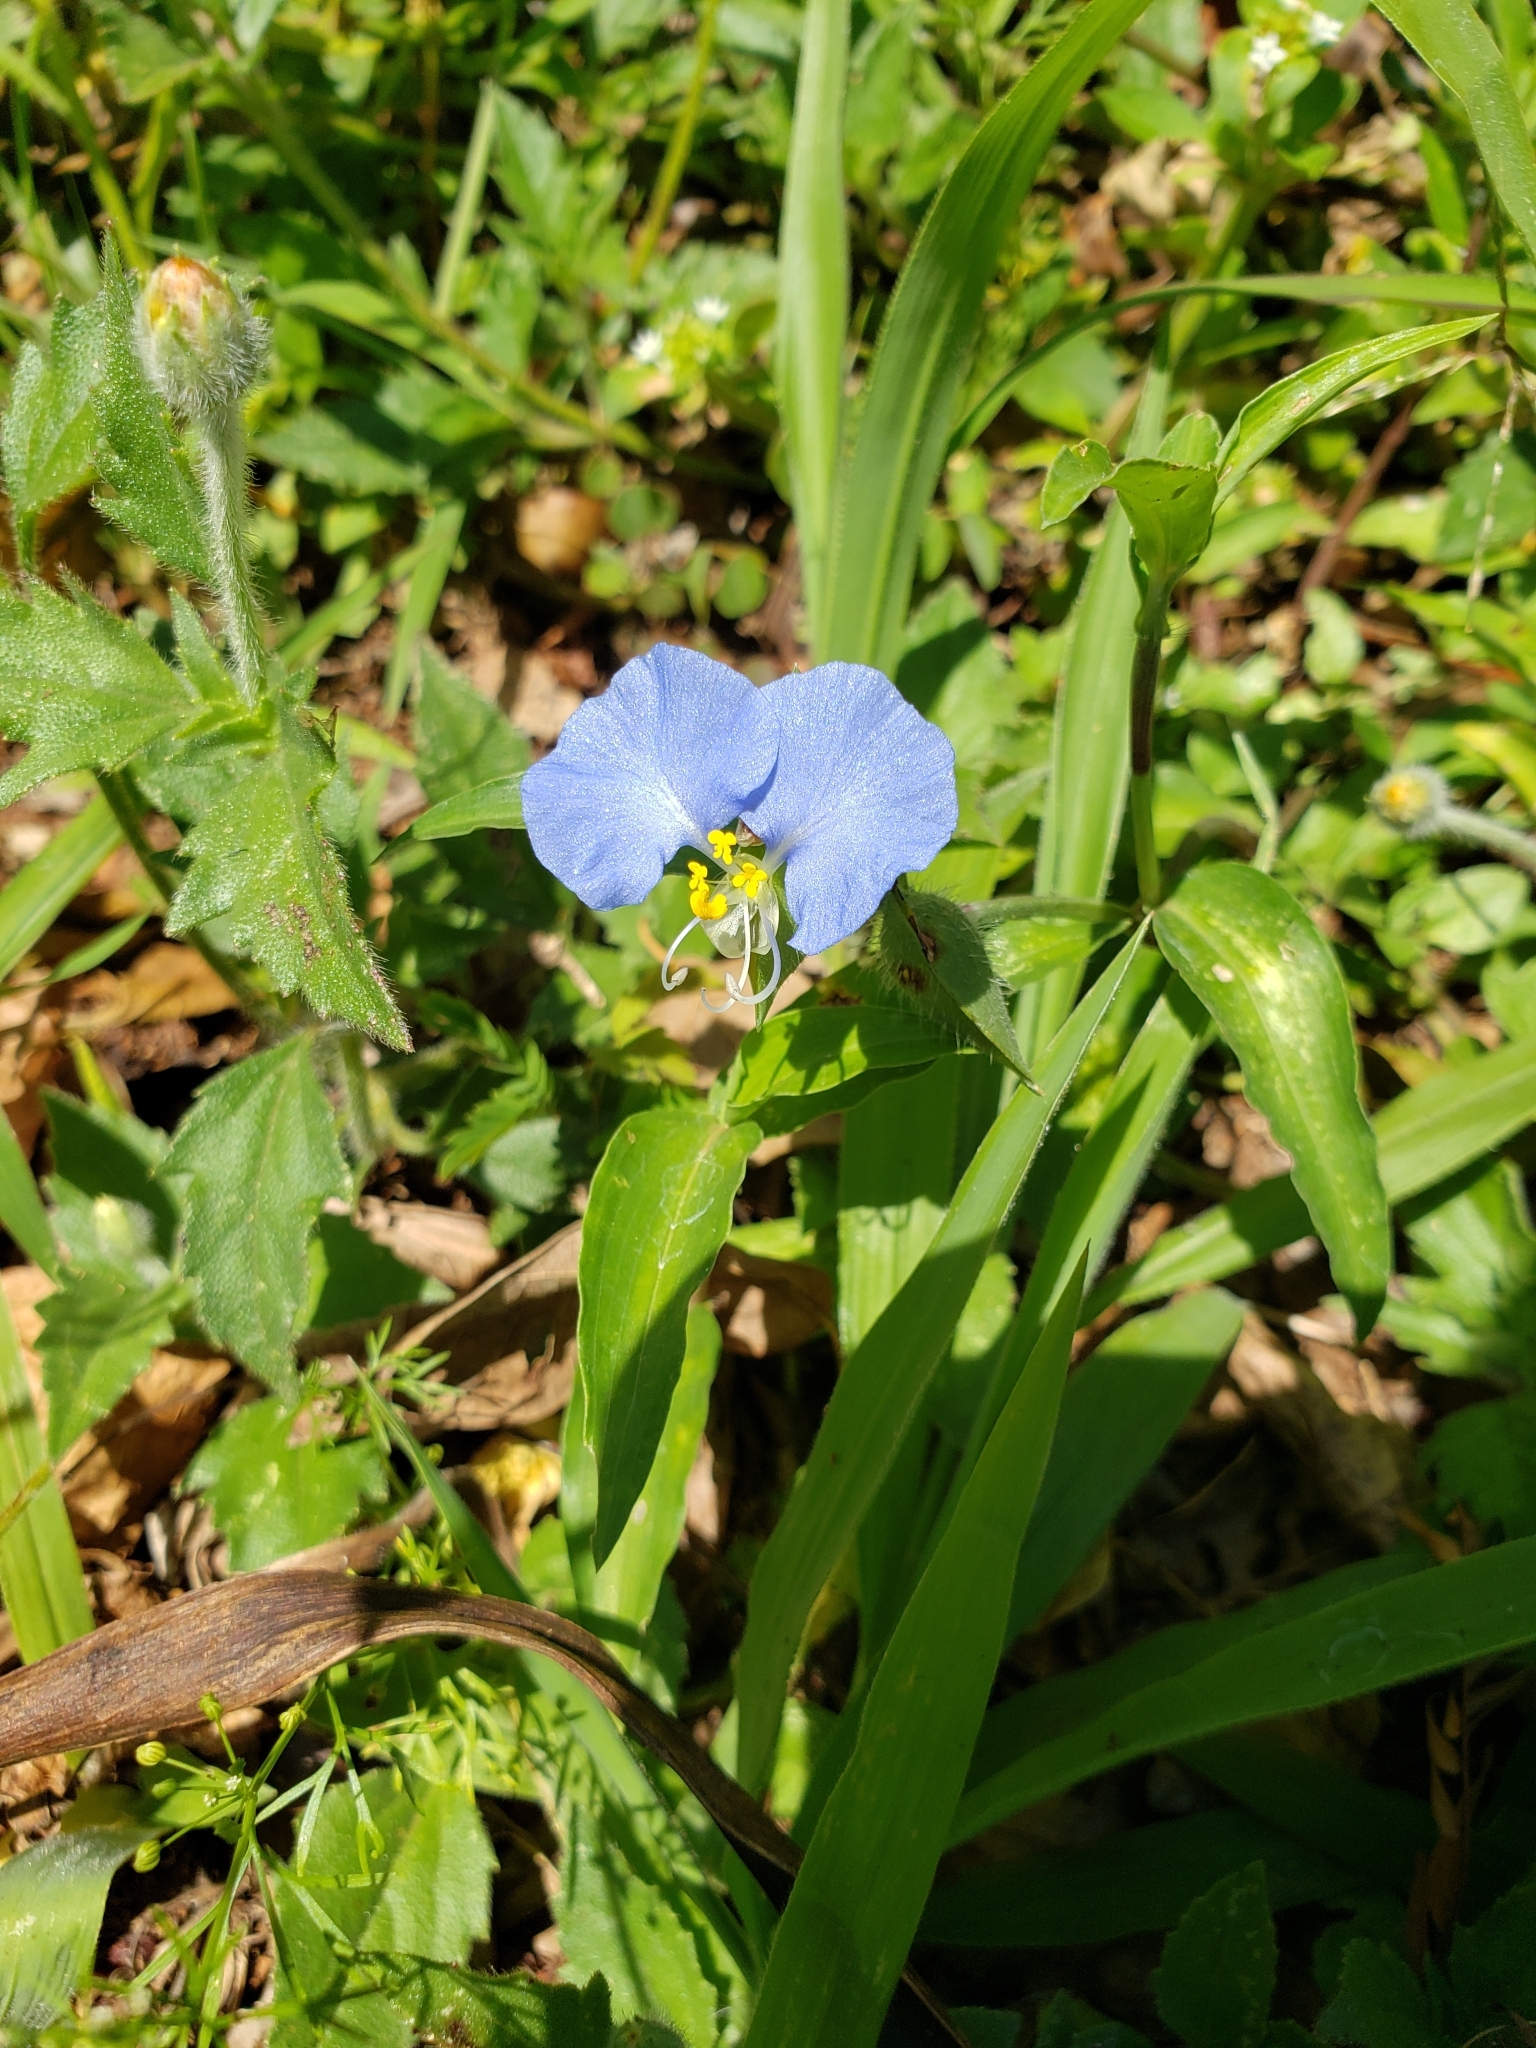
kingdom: Plantae
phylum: Tracheophyta
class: Liliopsida
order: Commelinales
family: Commelinaceae
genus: Commelina
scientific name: Commelina erecta
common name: Blousel blommetjie
